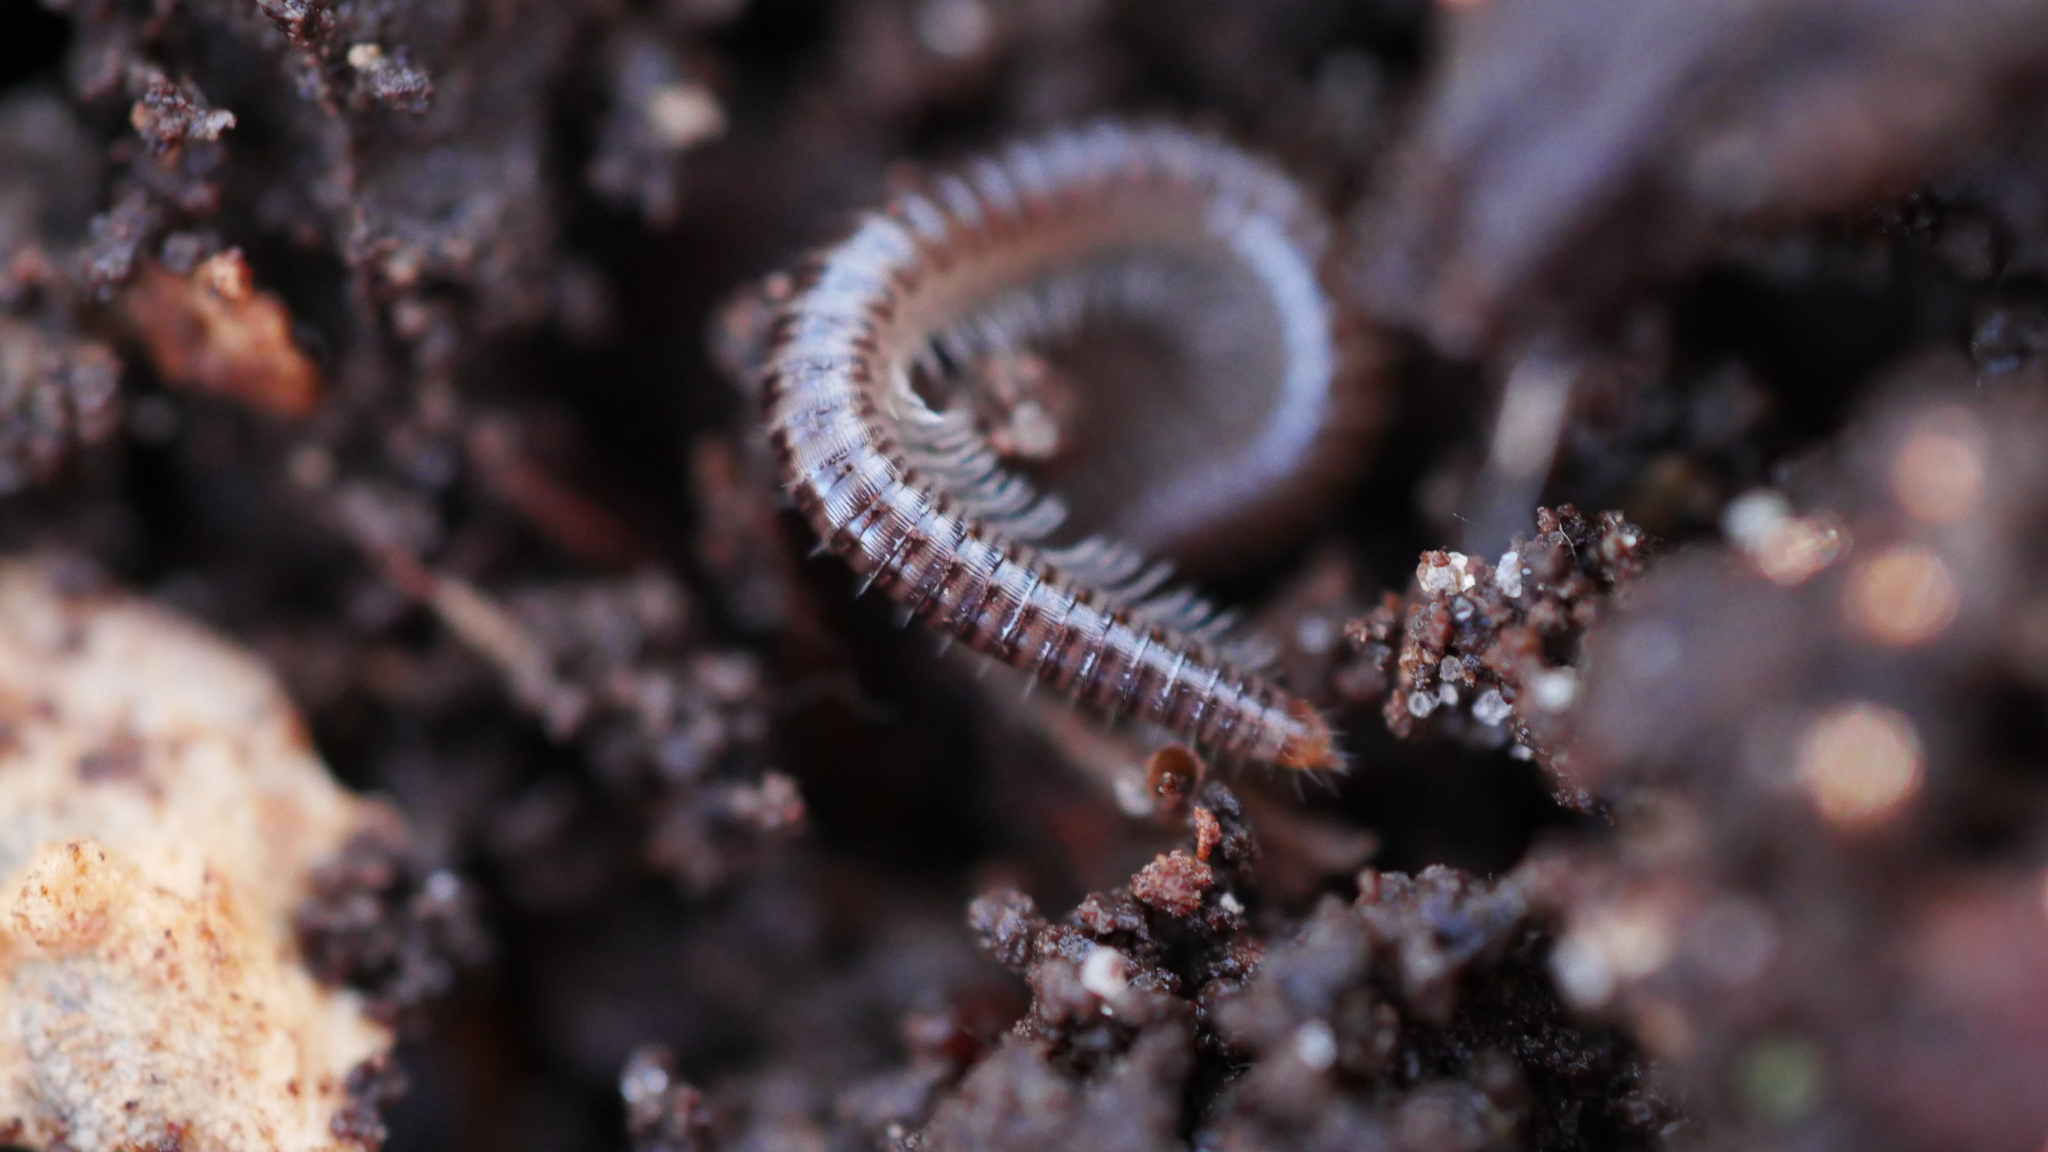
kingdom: Animalia
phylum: Arthropoda
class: Diplopoda
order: Julida
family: Julidae
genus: Ophyiulus
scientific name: Ophyiulus pilosus
